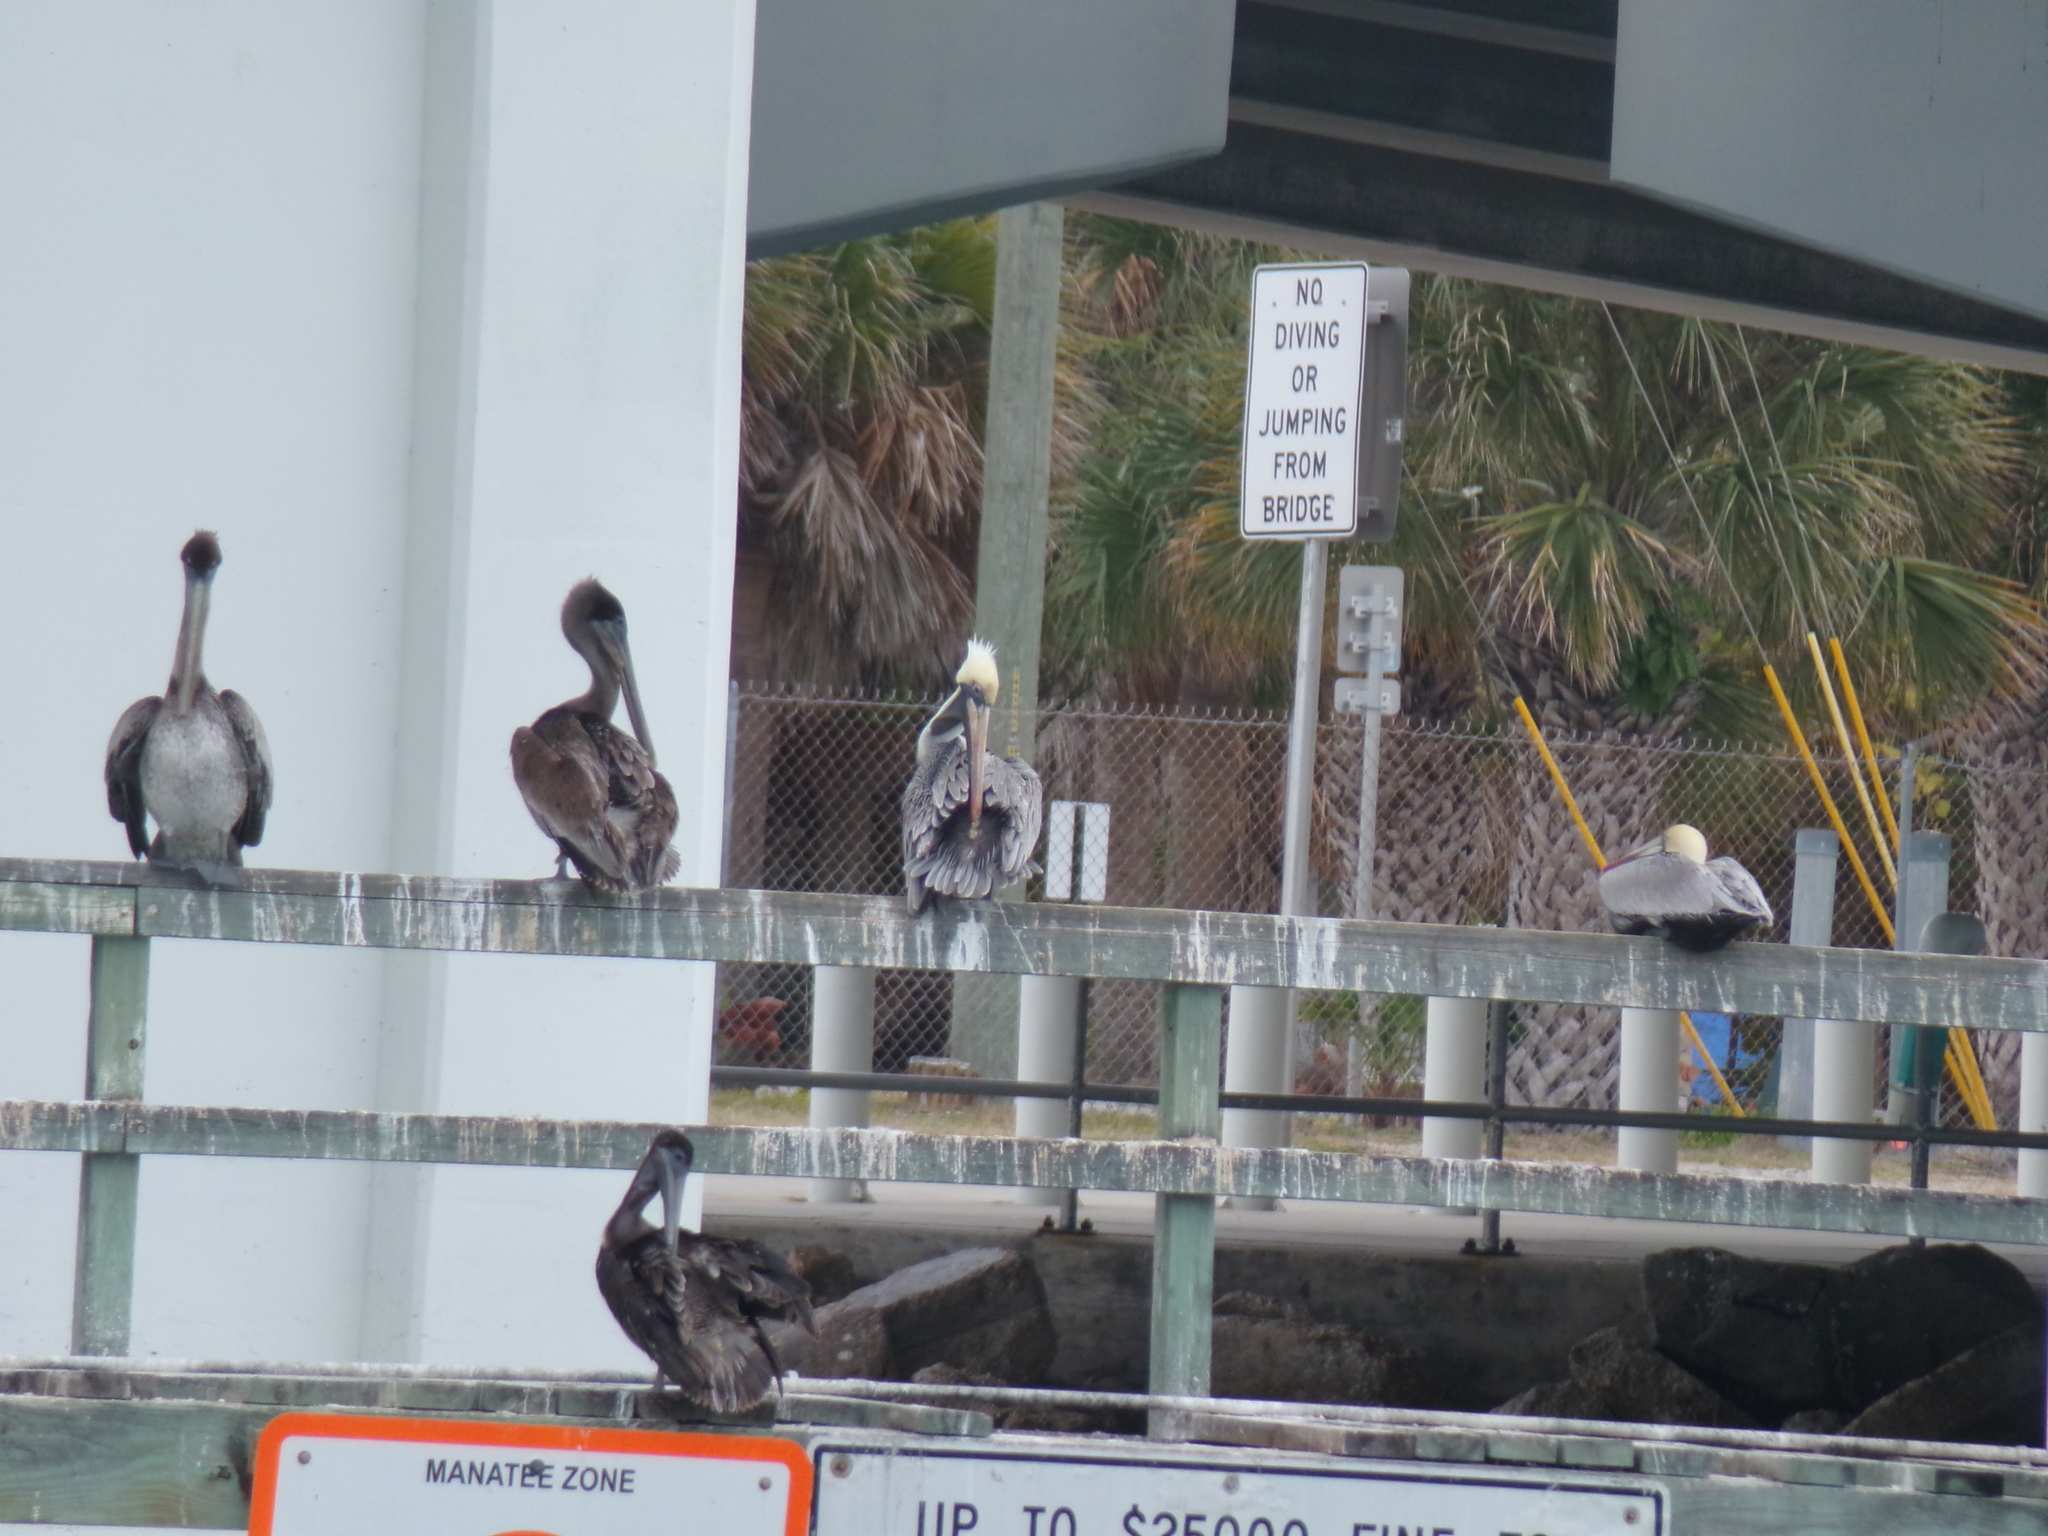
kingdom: Animalia
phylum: Chordata
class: Aves
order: Pelecaniformes
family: Pelecanidae
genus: Pelecanus
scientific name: Pelecanus occidentalis
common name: Brown pelican
